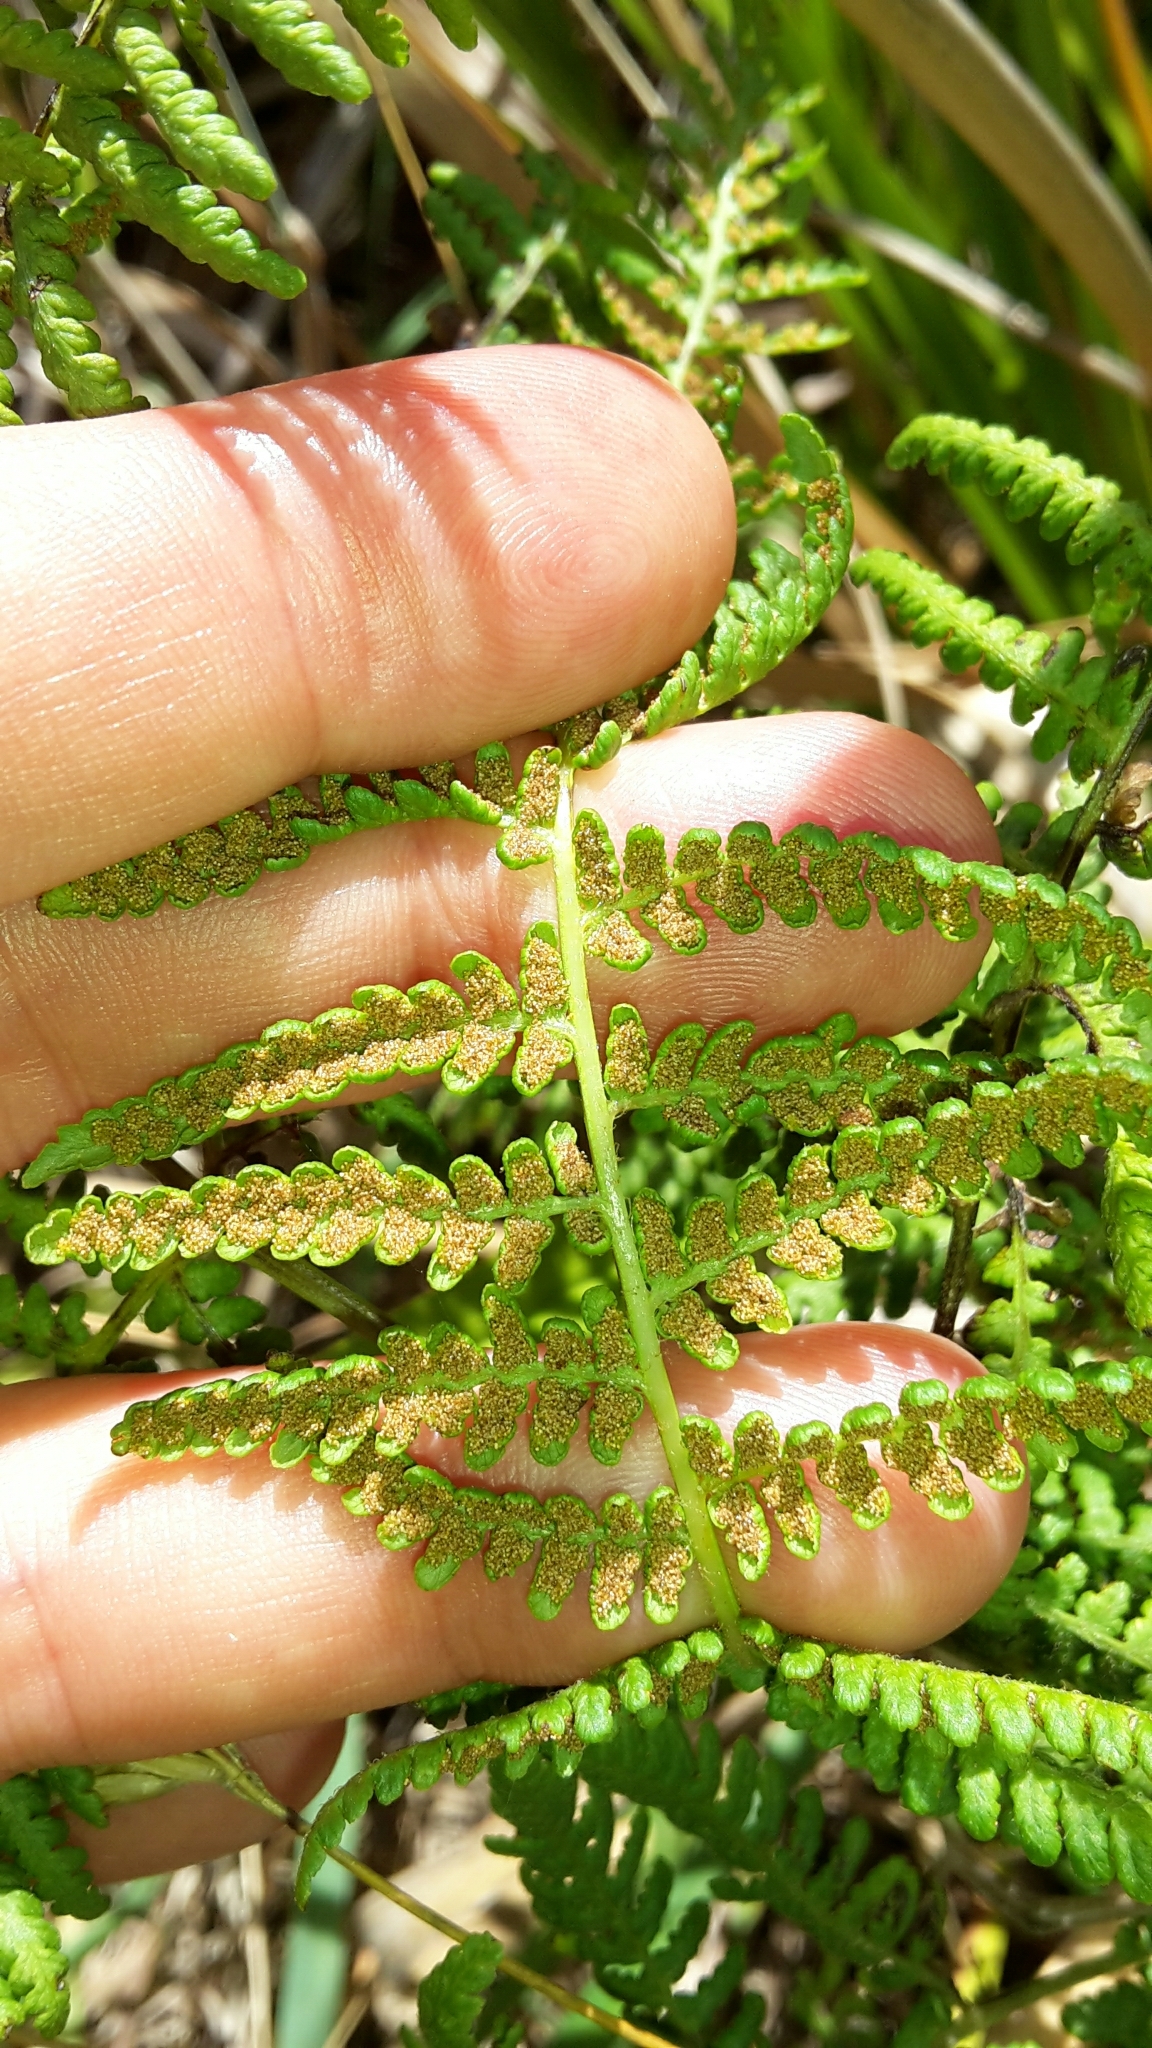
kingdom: Plantae
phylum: Tracheophyta
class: Polypodiopsida
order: Polypodiales
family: Dennstaedtiaceae
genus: Hypolepis
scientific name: Hypolepis ambigua
